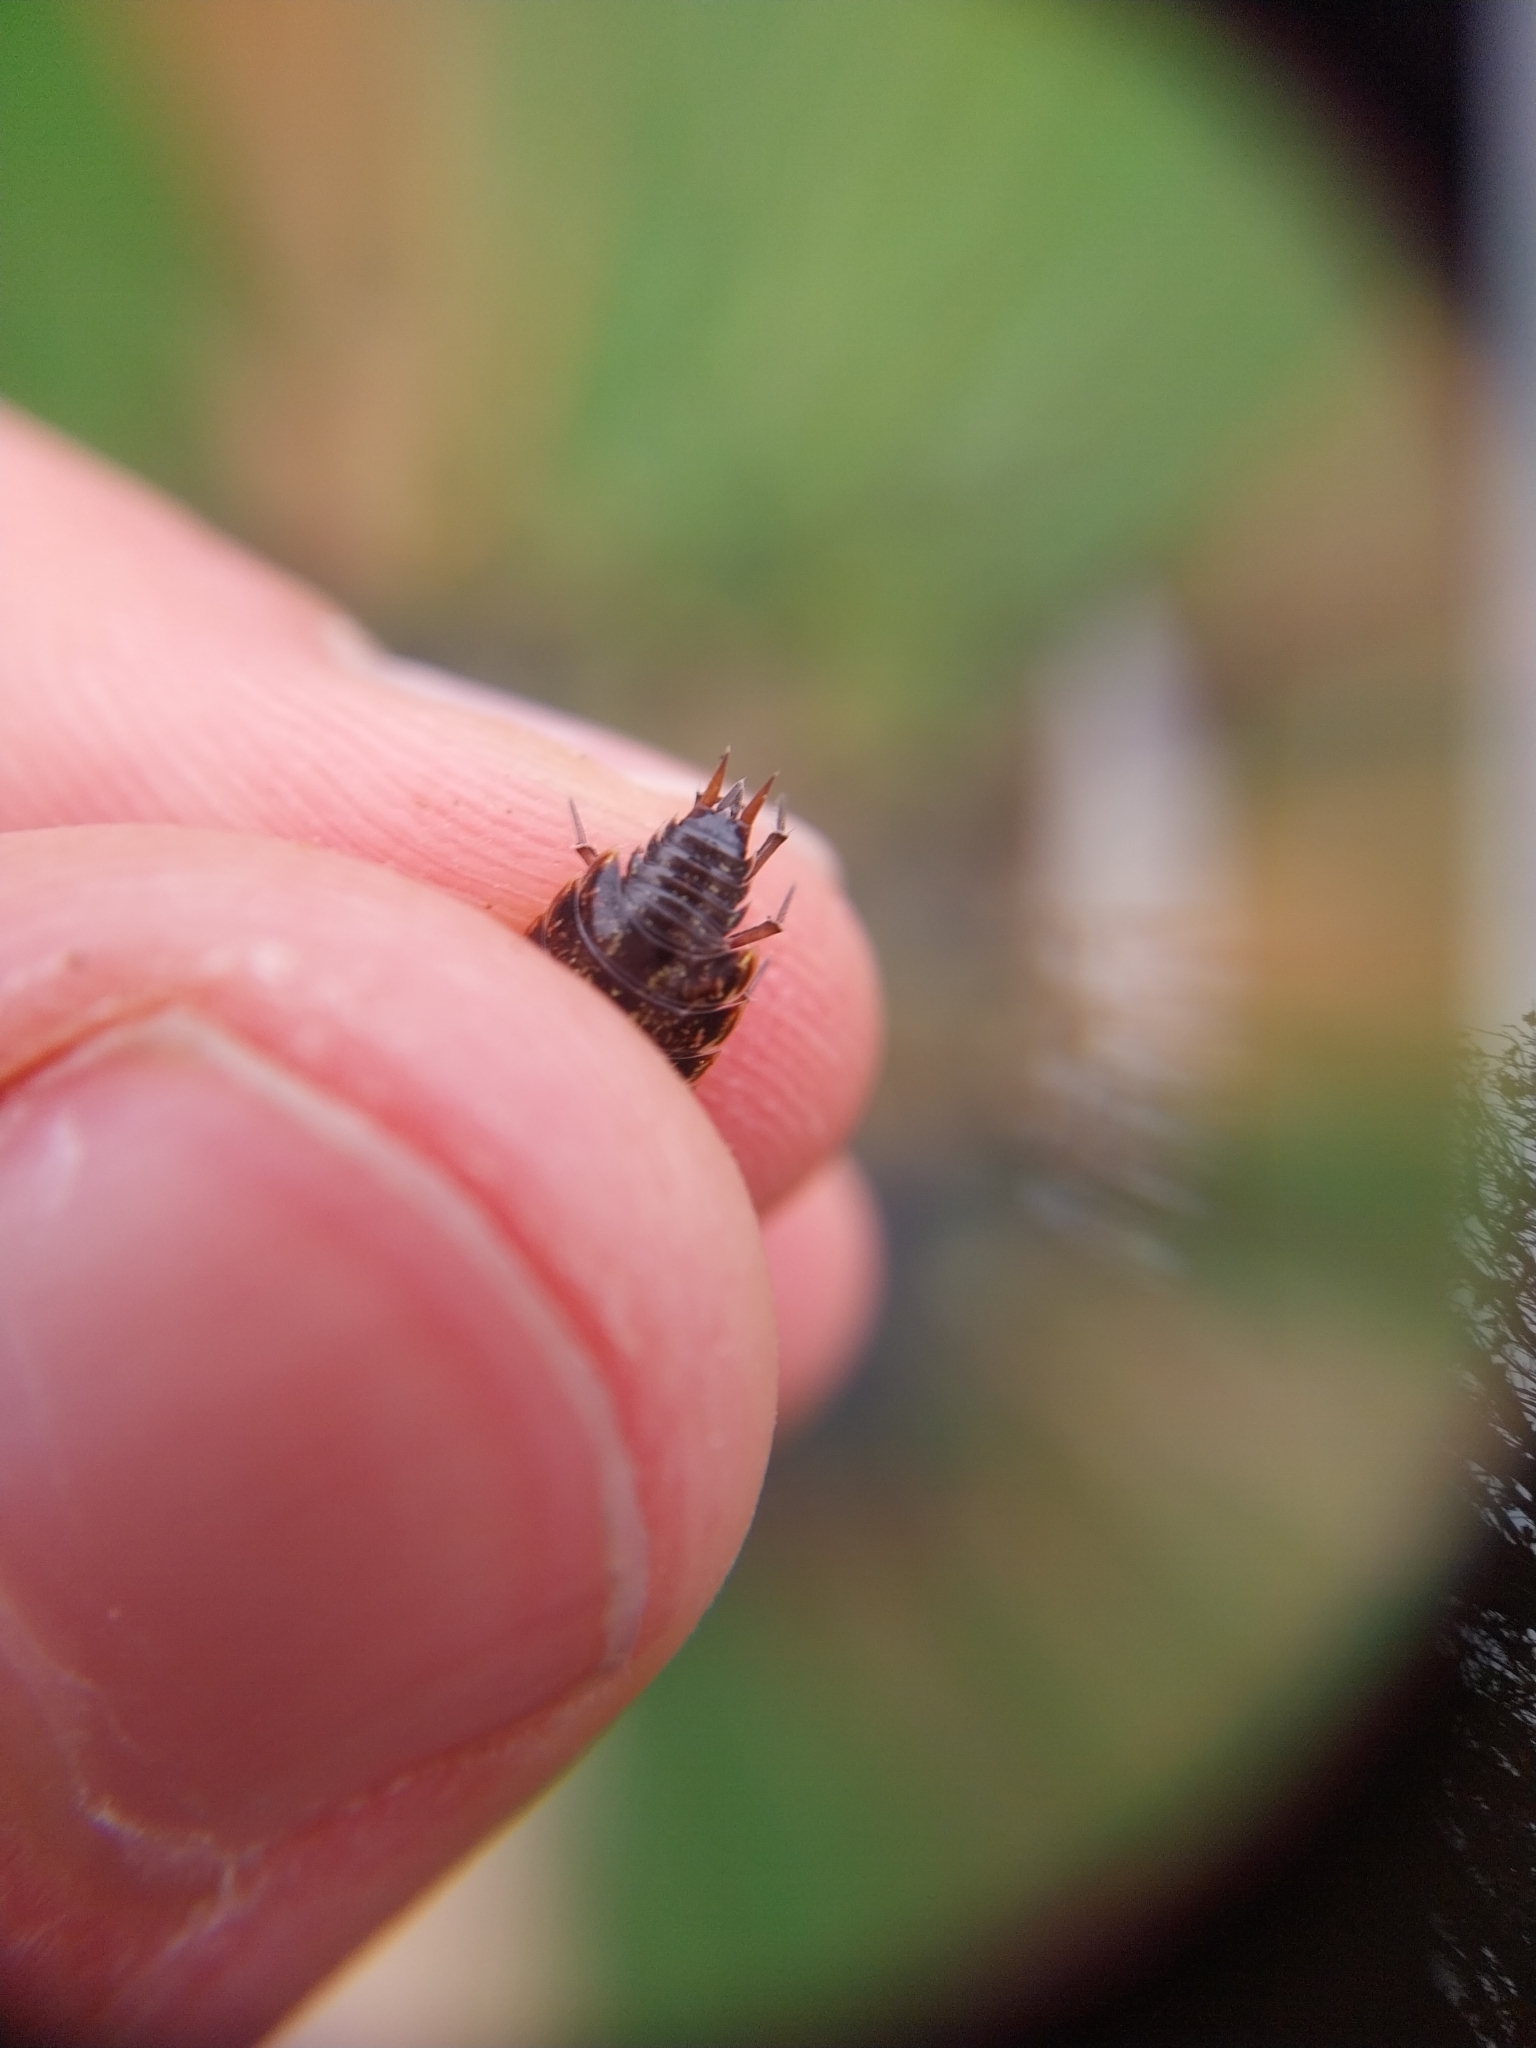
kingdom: Animalia
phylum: Arthropoda
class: Malacostraca
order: Isopoda
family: Philosciidae
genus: Philoscia
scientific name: Philoscia muscorum
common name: Common striped woodlouse
